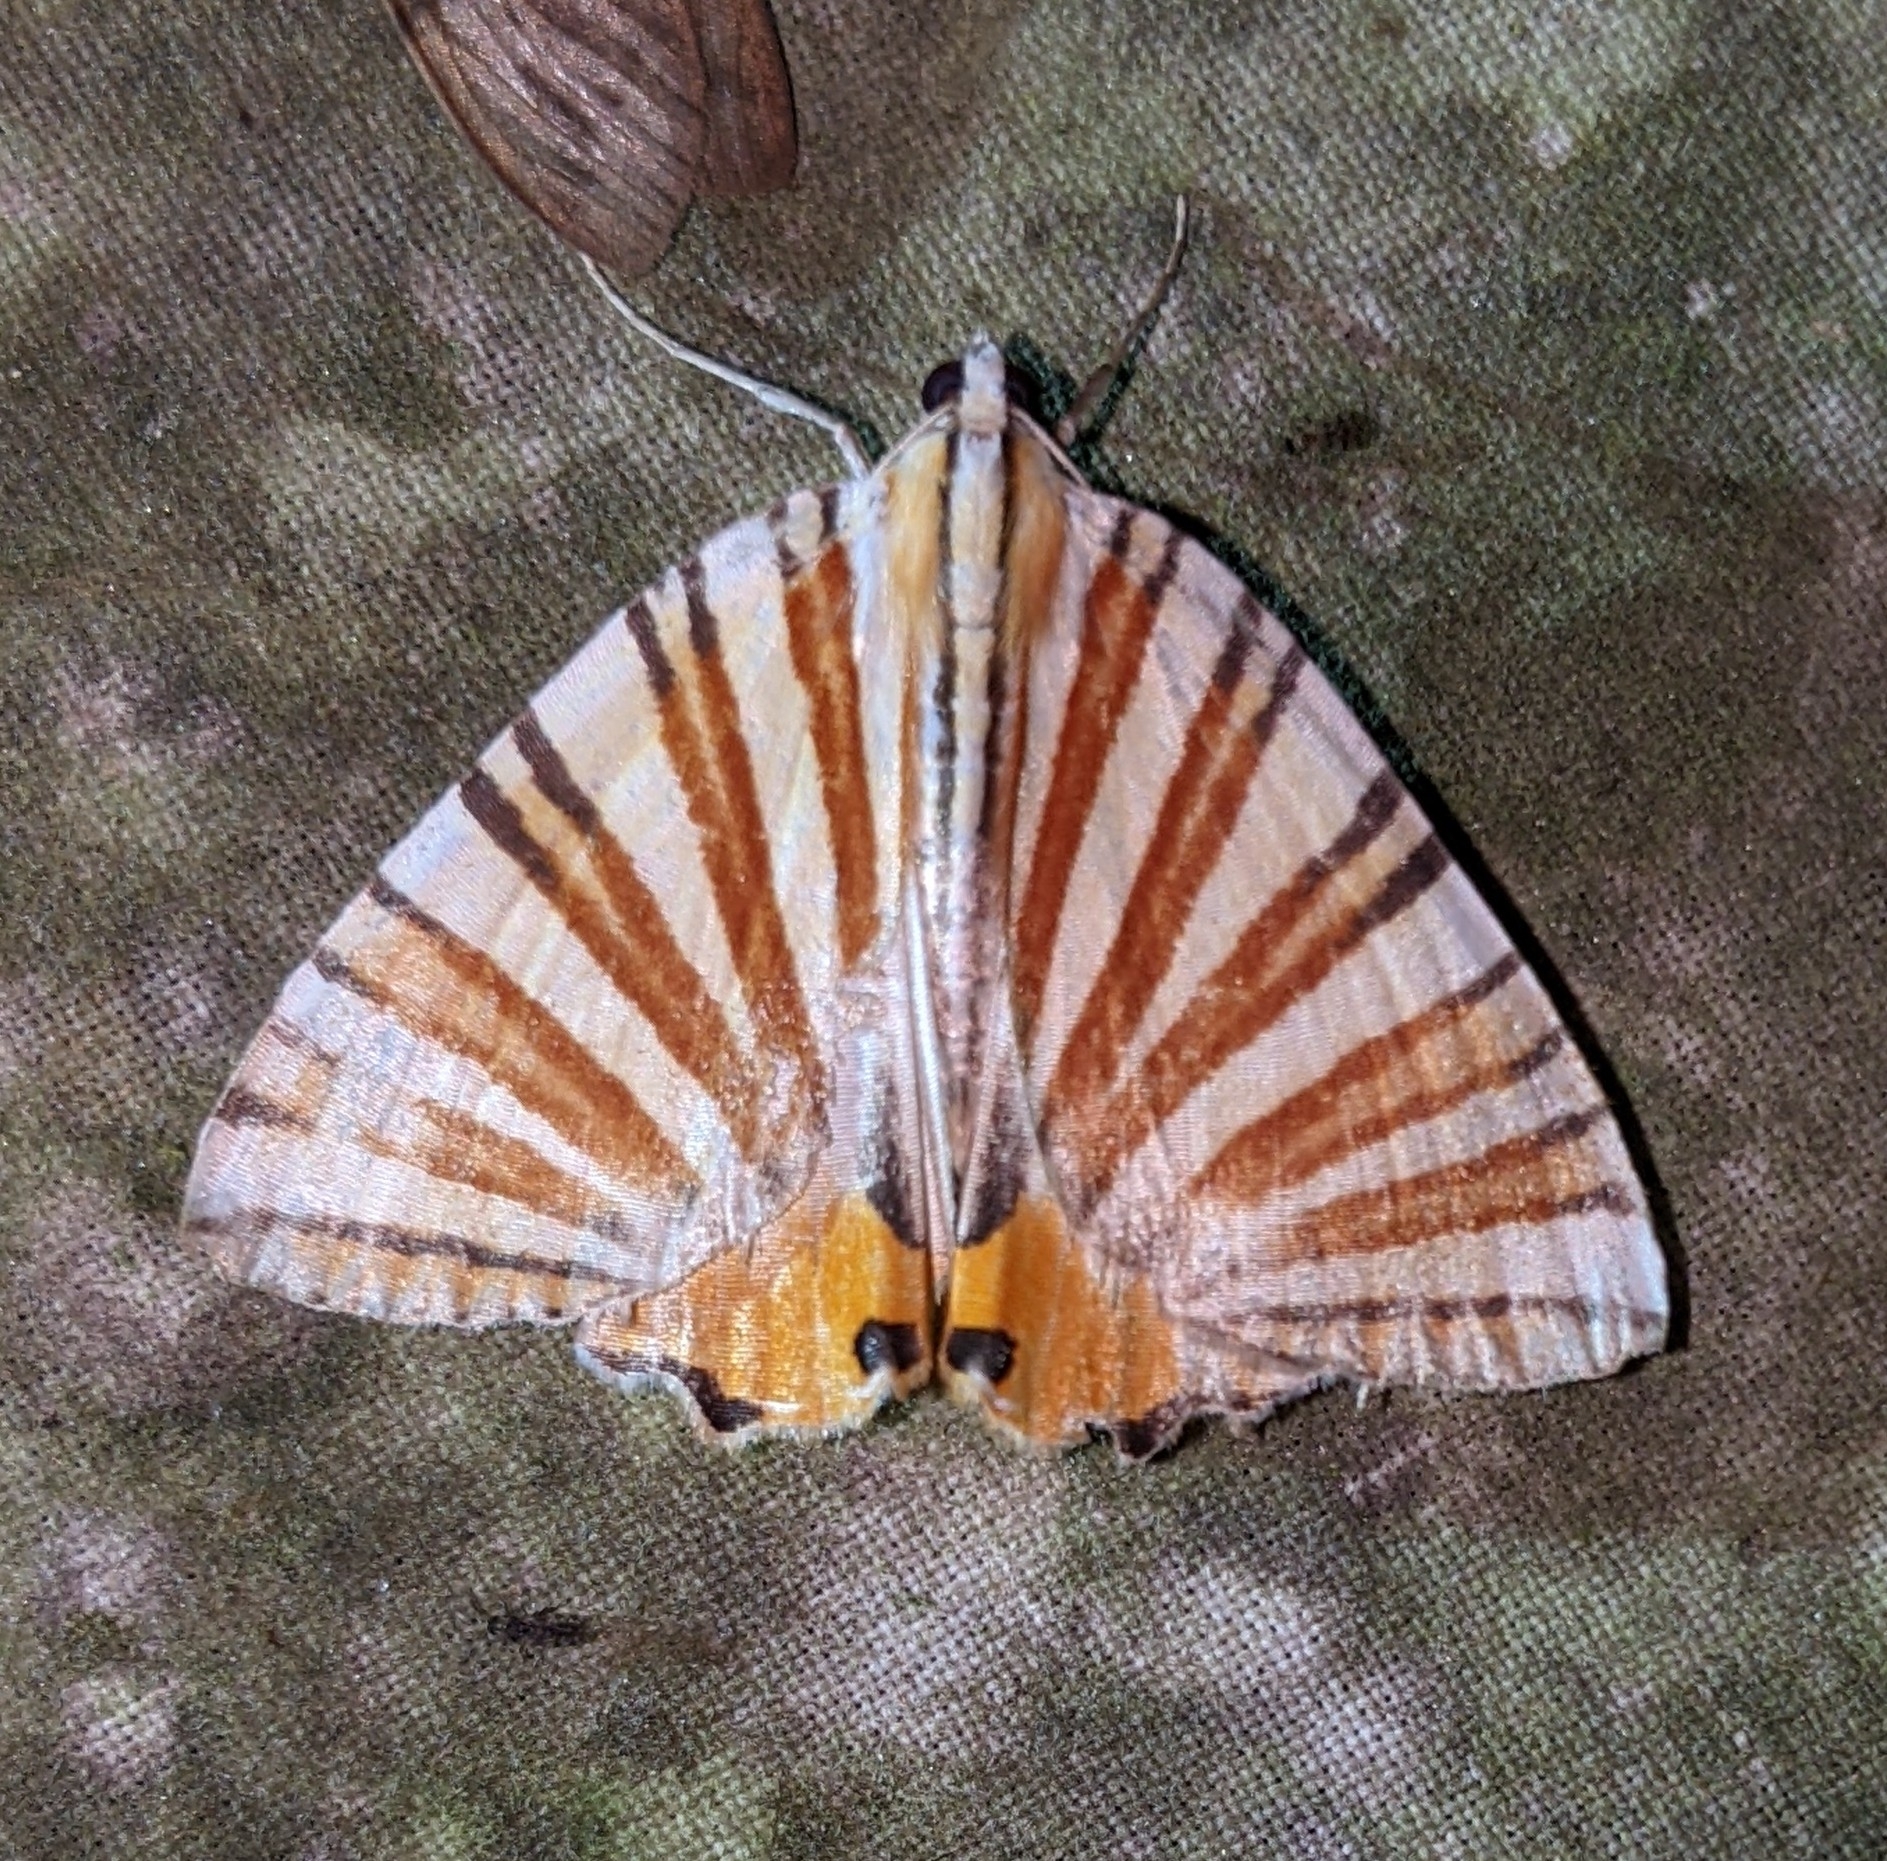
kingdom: Animalia
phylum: Arthropoda
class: Insecta
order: Lepidoptera
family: Geometridae
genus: Pityeja
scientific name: Pityeja histrionaria
